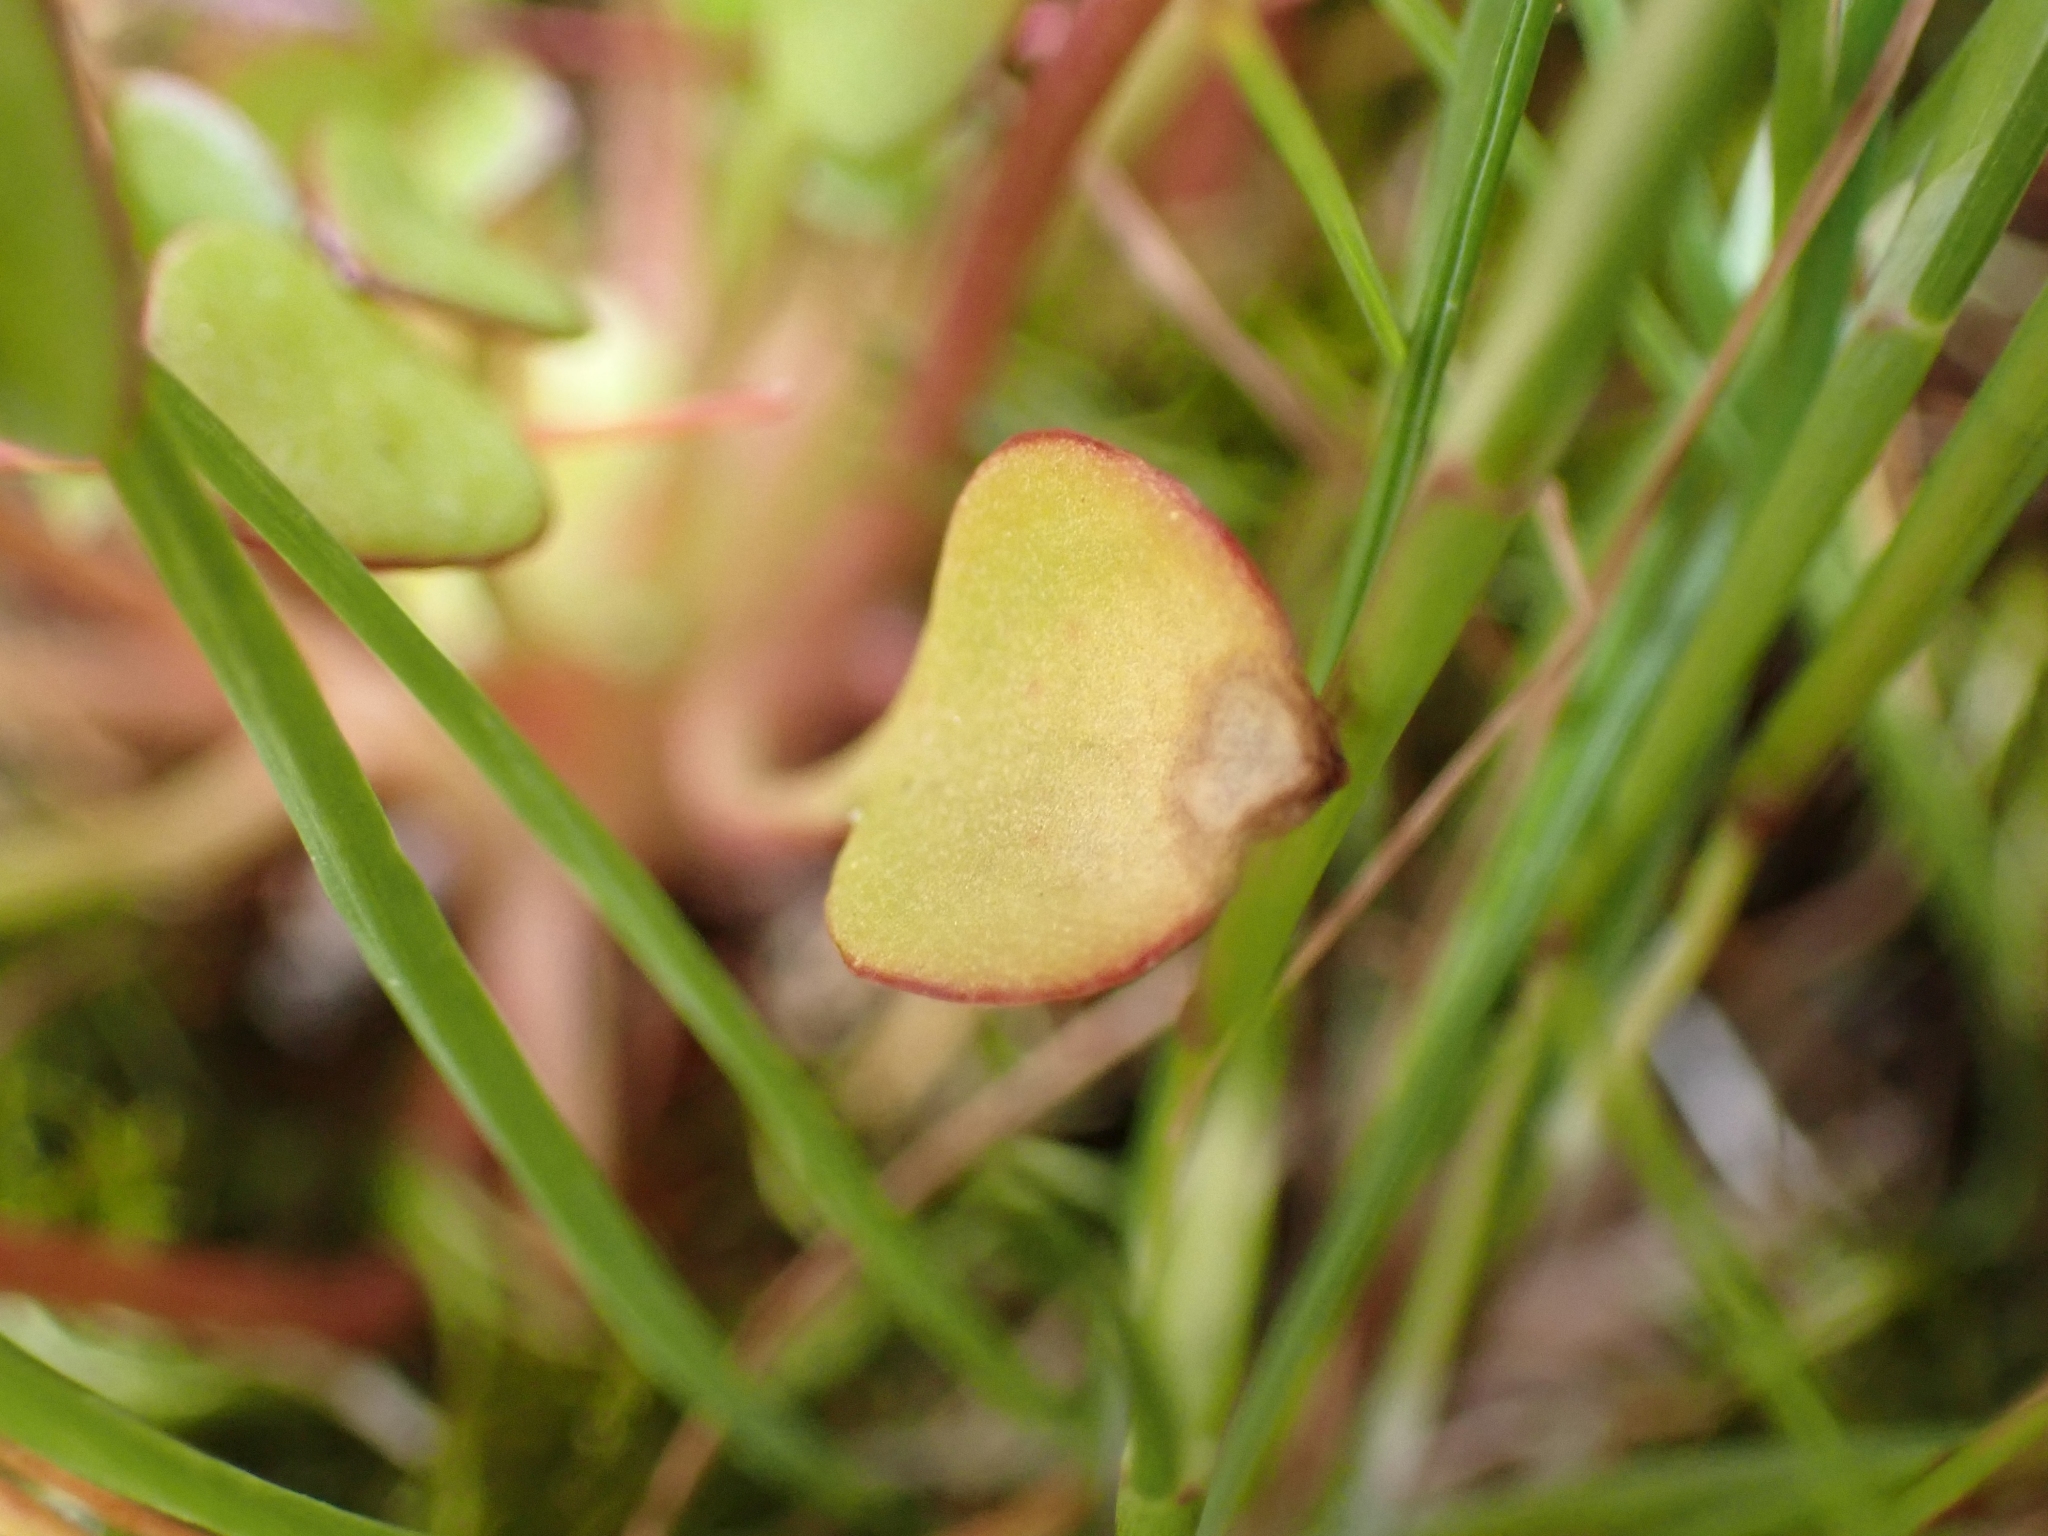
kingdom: Plantae
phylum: Tracheophyta
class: Magnoliopsida
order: Caryophyllales
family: Montiaceae
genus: Claytonia
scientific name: Claytonia rubra
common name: Erubescent miner's-lettuce
